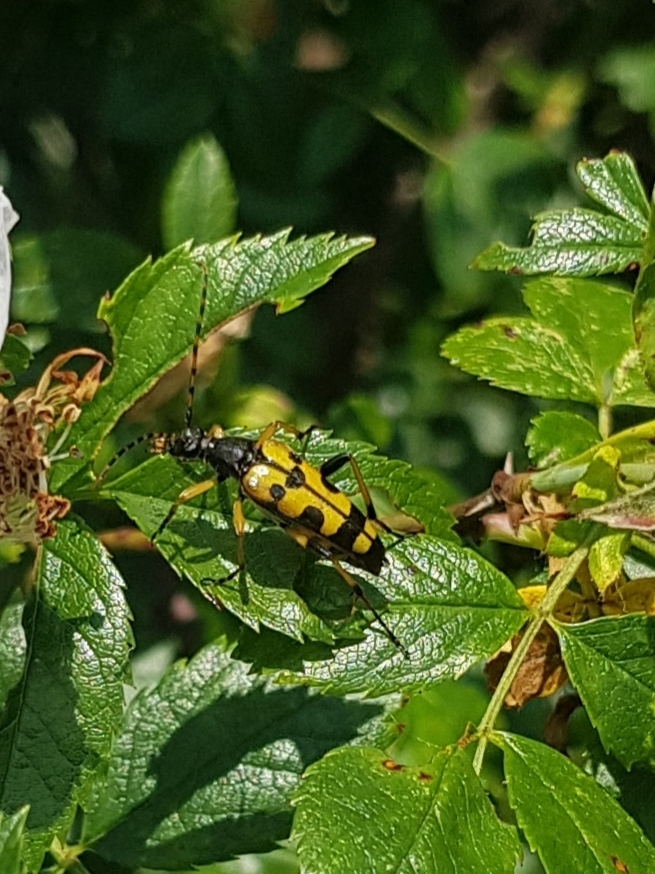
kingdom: Animalia
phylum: Arthropoda
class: Insecta
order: Coleoptera
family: Cerambycidae
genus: Rutpela
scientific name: Rutpela maculata
